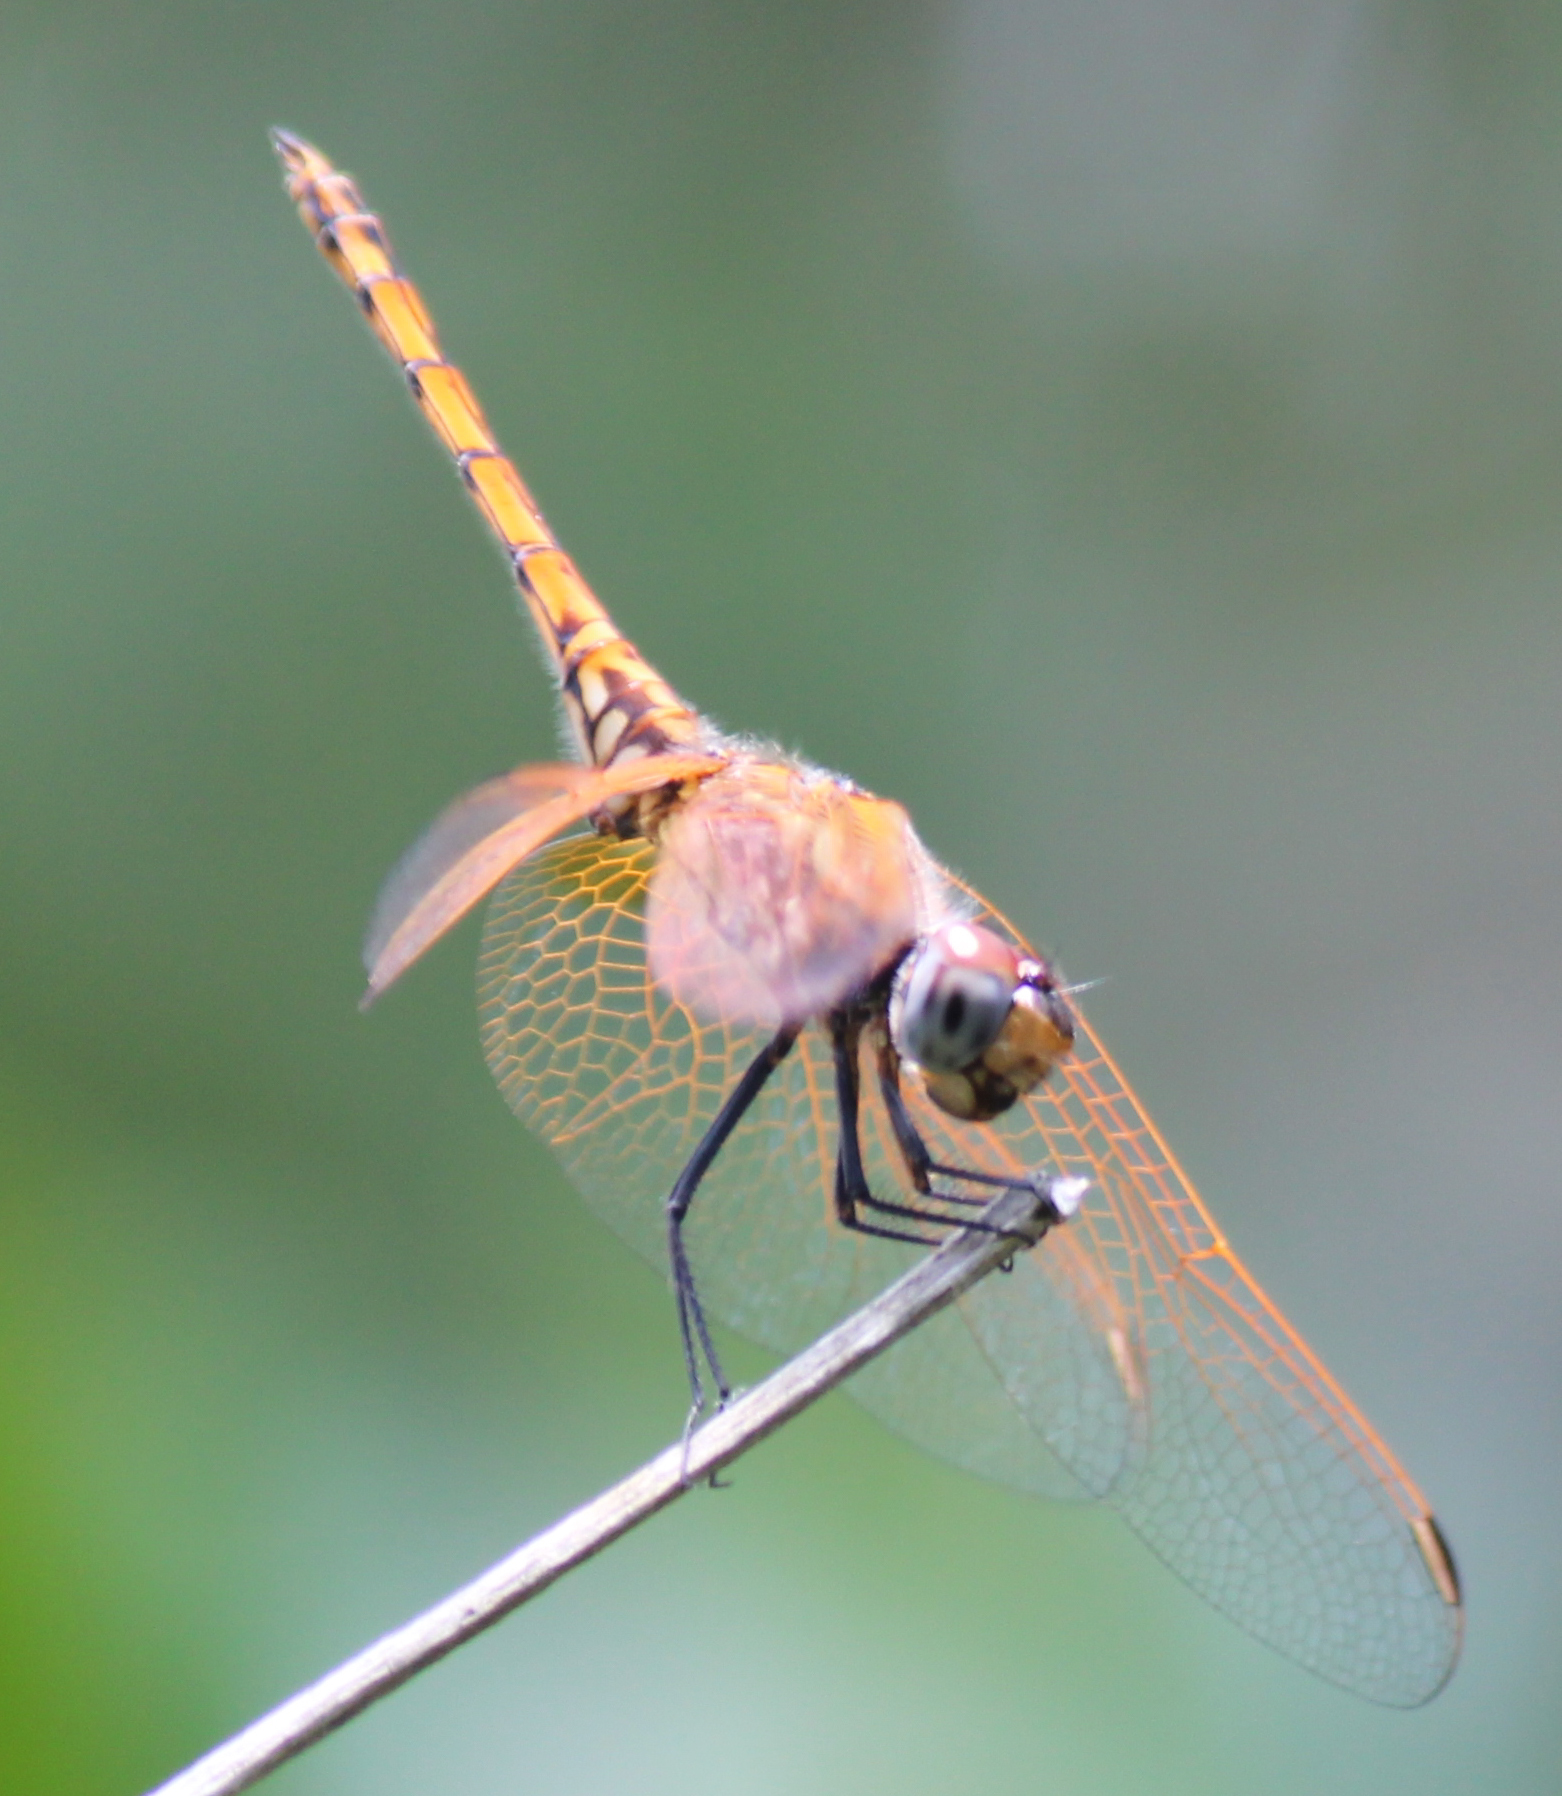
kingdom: Animalia
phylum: Arthropoda
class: Insecta
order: Odonata
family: Libellulidae
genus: Trithemis
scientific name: Trithemis annulata
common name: Violet dropwing
